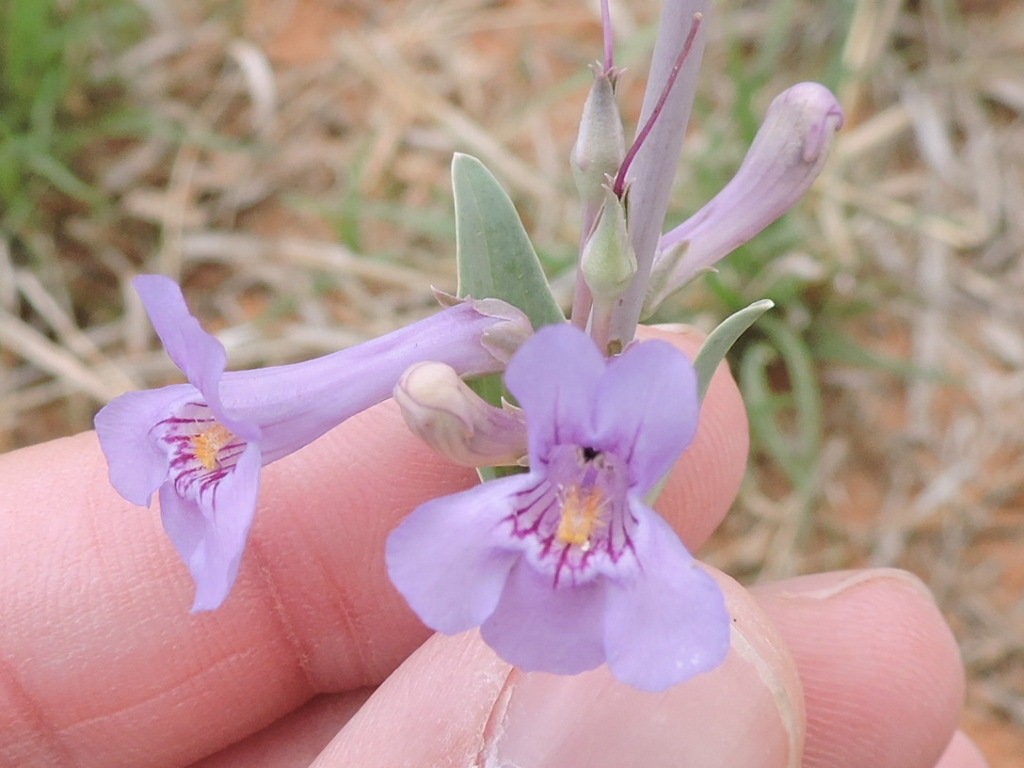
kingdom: Plantae
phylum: Tracheophyta
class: Magnoliopsida
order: Lamiales
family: Plantaginaceae
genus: Penstemon
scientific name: Penstemon fendleri
